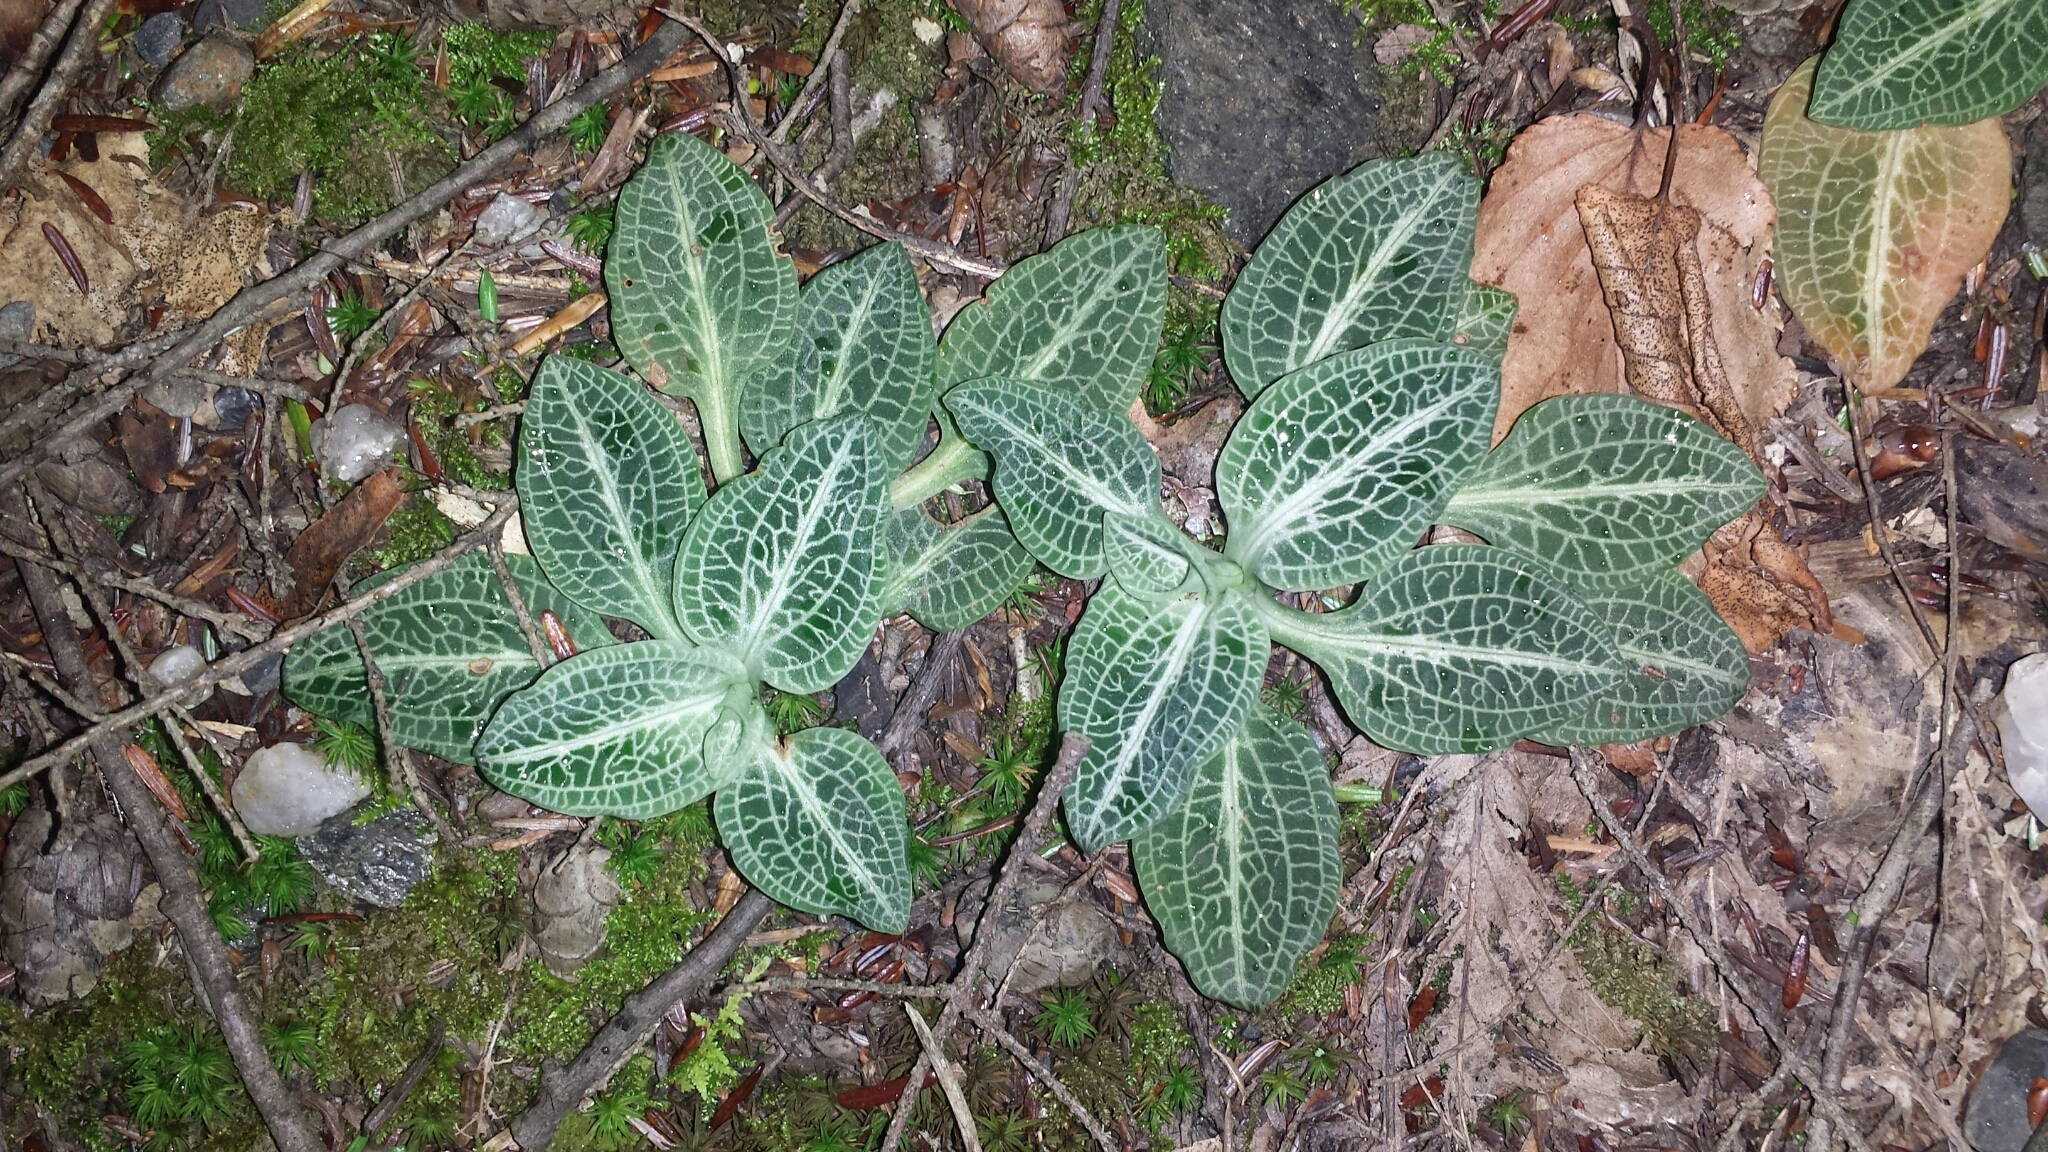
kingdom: Plantae
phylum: Tracheophyta
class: Liliopsida
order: Asparagales
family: Orchidaceae
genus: Goodyera
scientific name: Goodyera pubescens
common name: Downy rattlesnake-plantain
